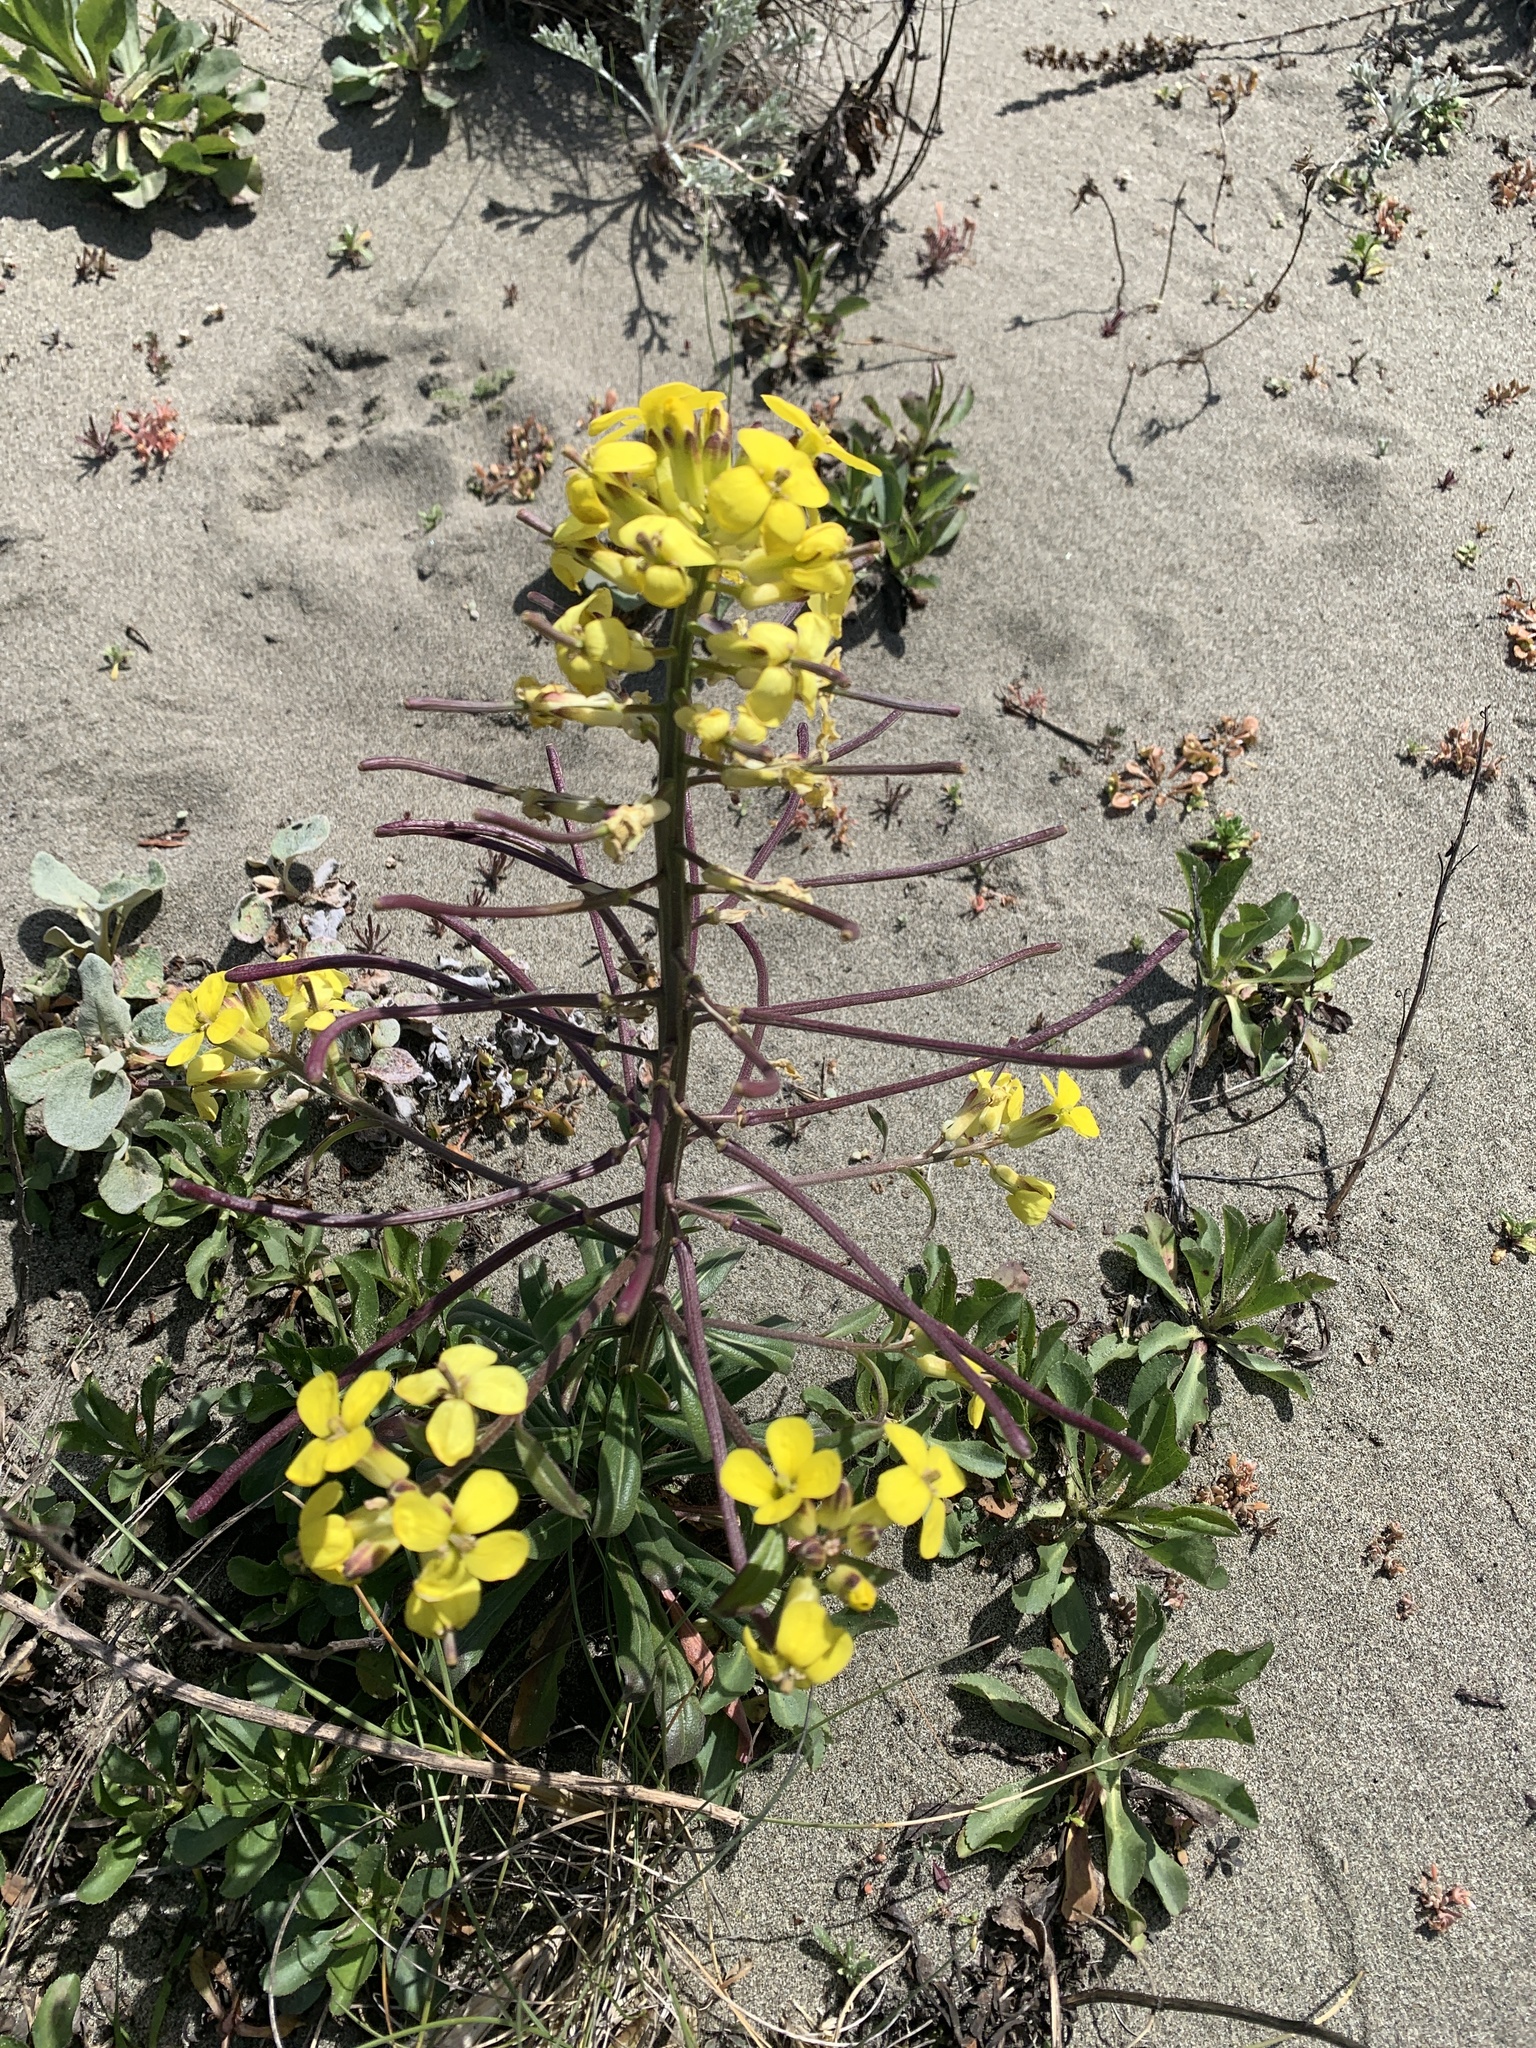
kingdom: Plantae
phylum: Tracheophyta
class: Magnoliopsida
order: Brassicales
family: Brassicaceae
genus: Erysimum
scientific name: Erysimum menziesii
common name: Menzies's wallflower
